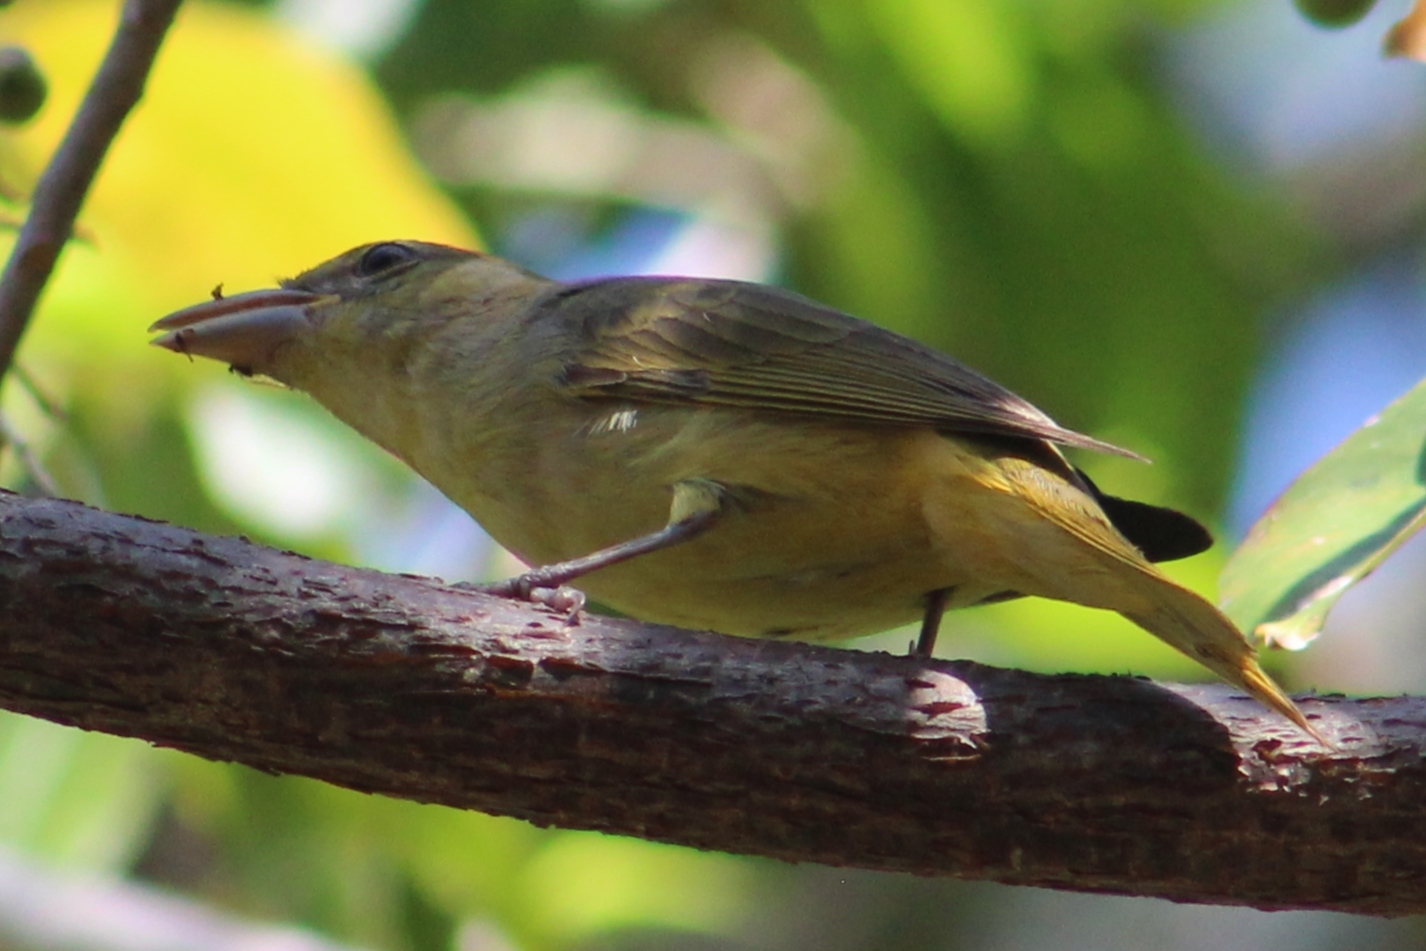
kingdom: Animalia
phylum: Chordata
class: Aves
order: Passeriformes
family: Cardinalidae
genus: Piranga
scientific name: Piranga rubra
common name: Summer tanager
